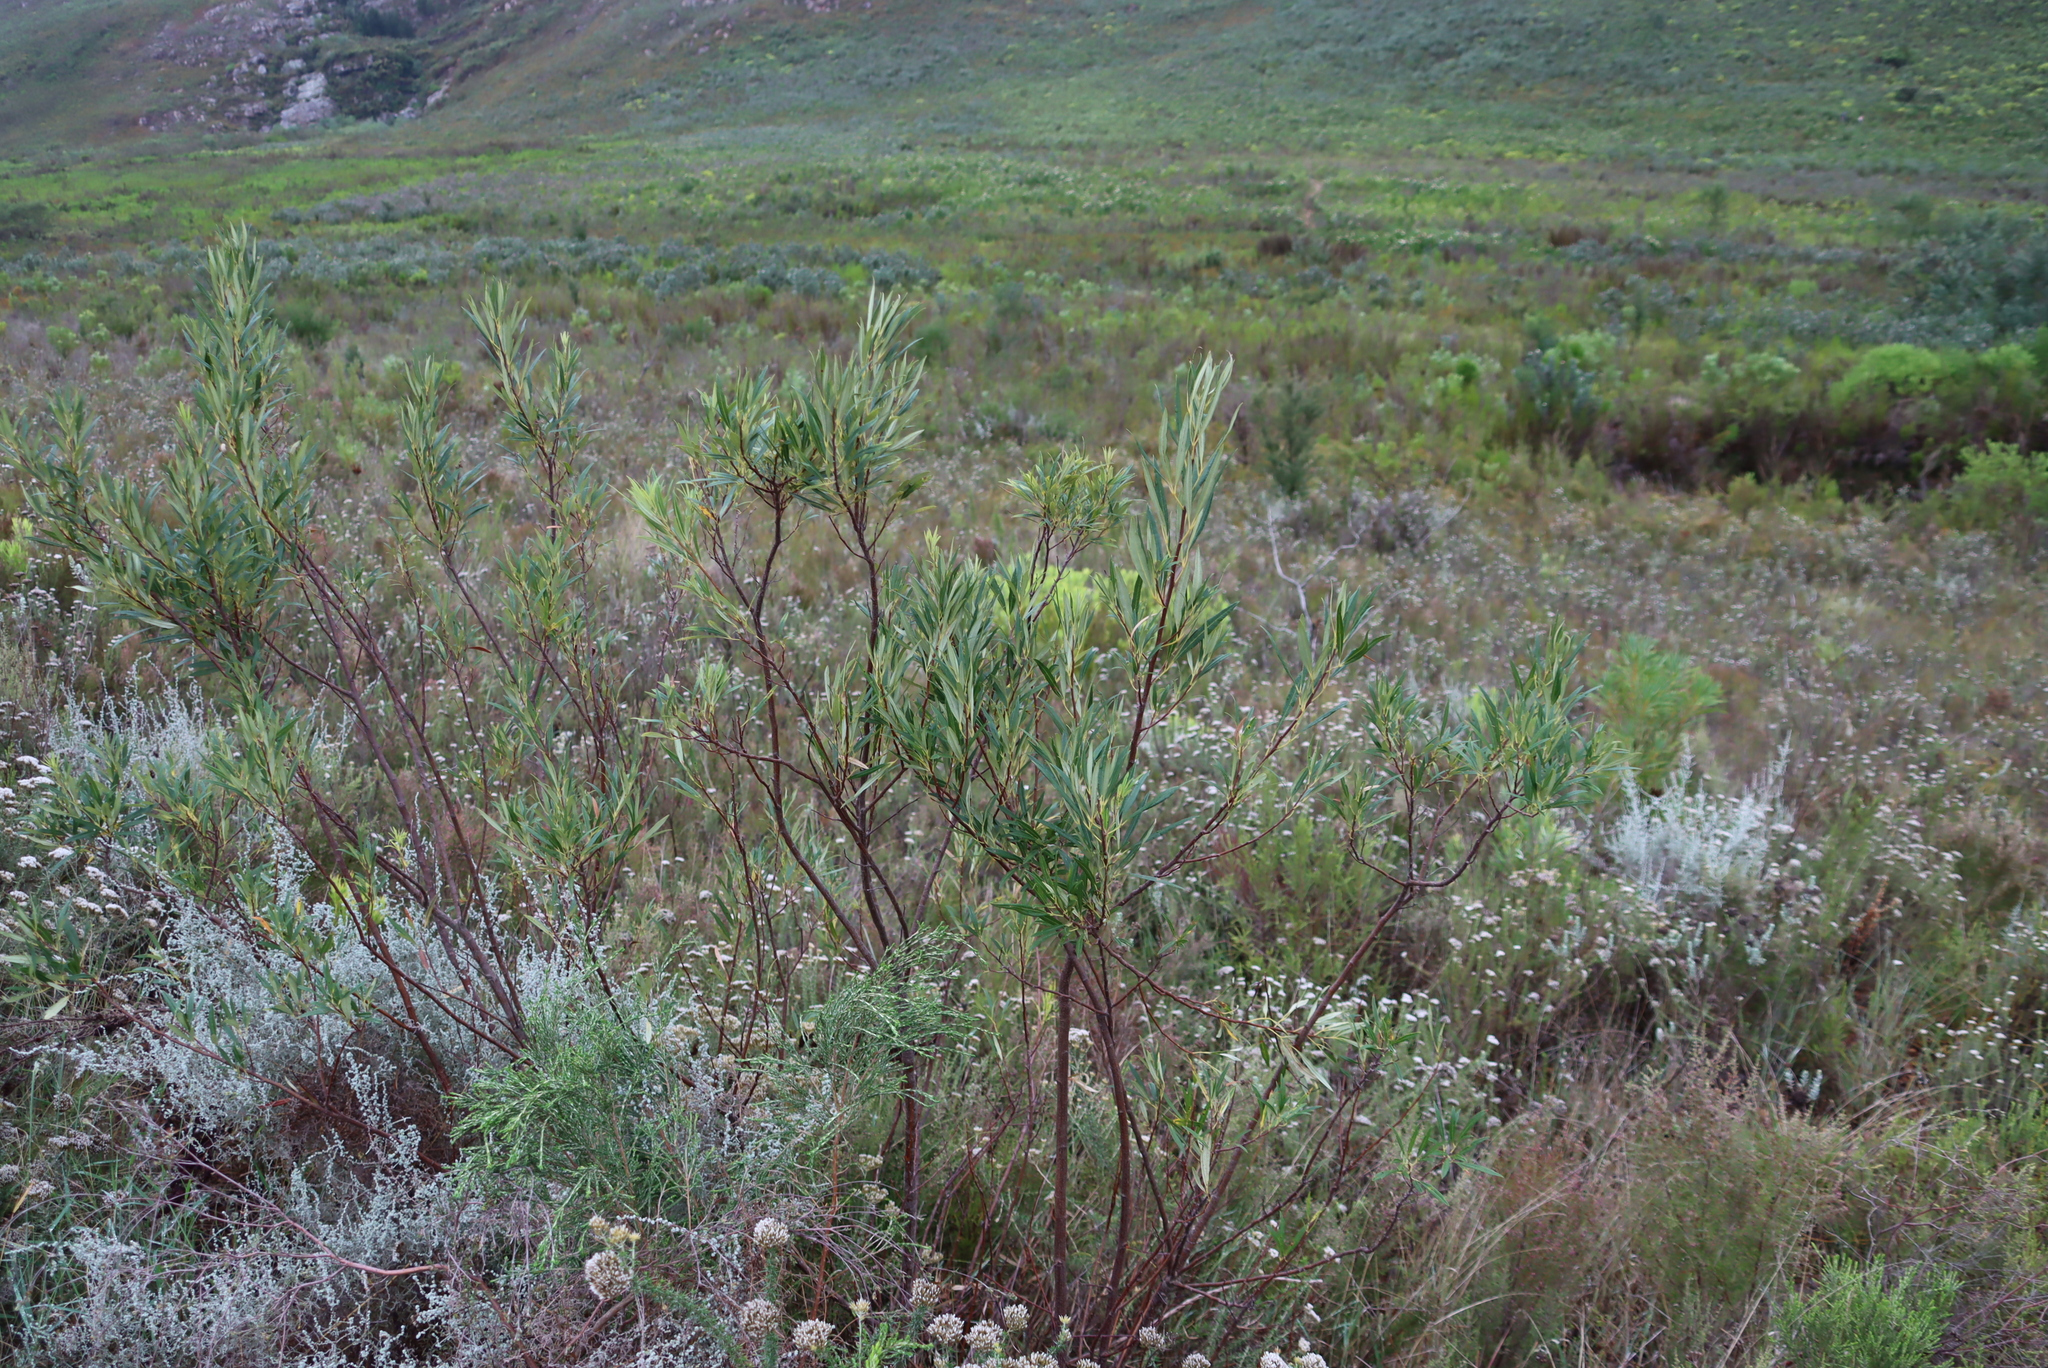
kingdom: Plantae
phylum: Tracheophyta
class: Magnoliopsida
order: Sapindales
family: Anacardiaceae
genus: Searsia
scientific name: Searsia angustifolia
